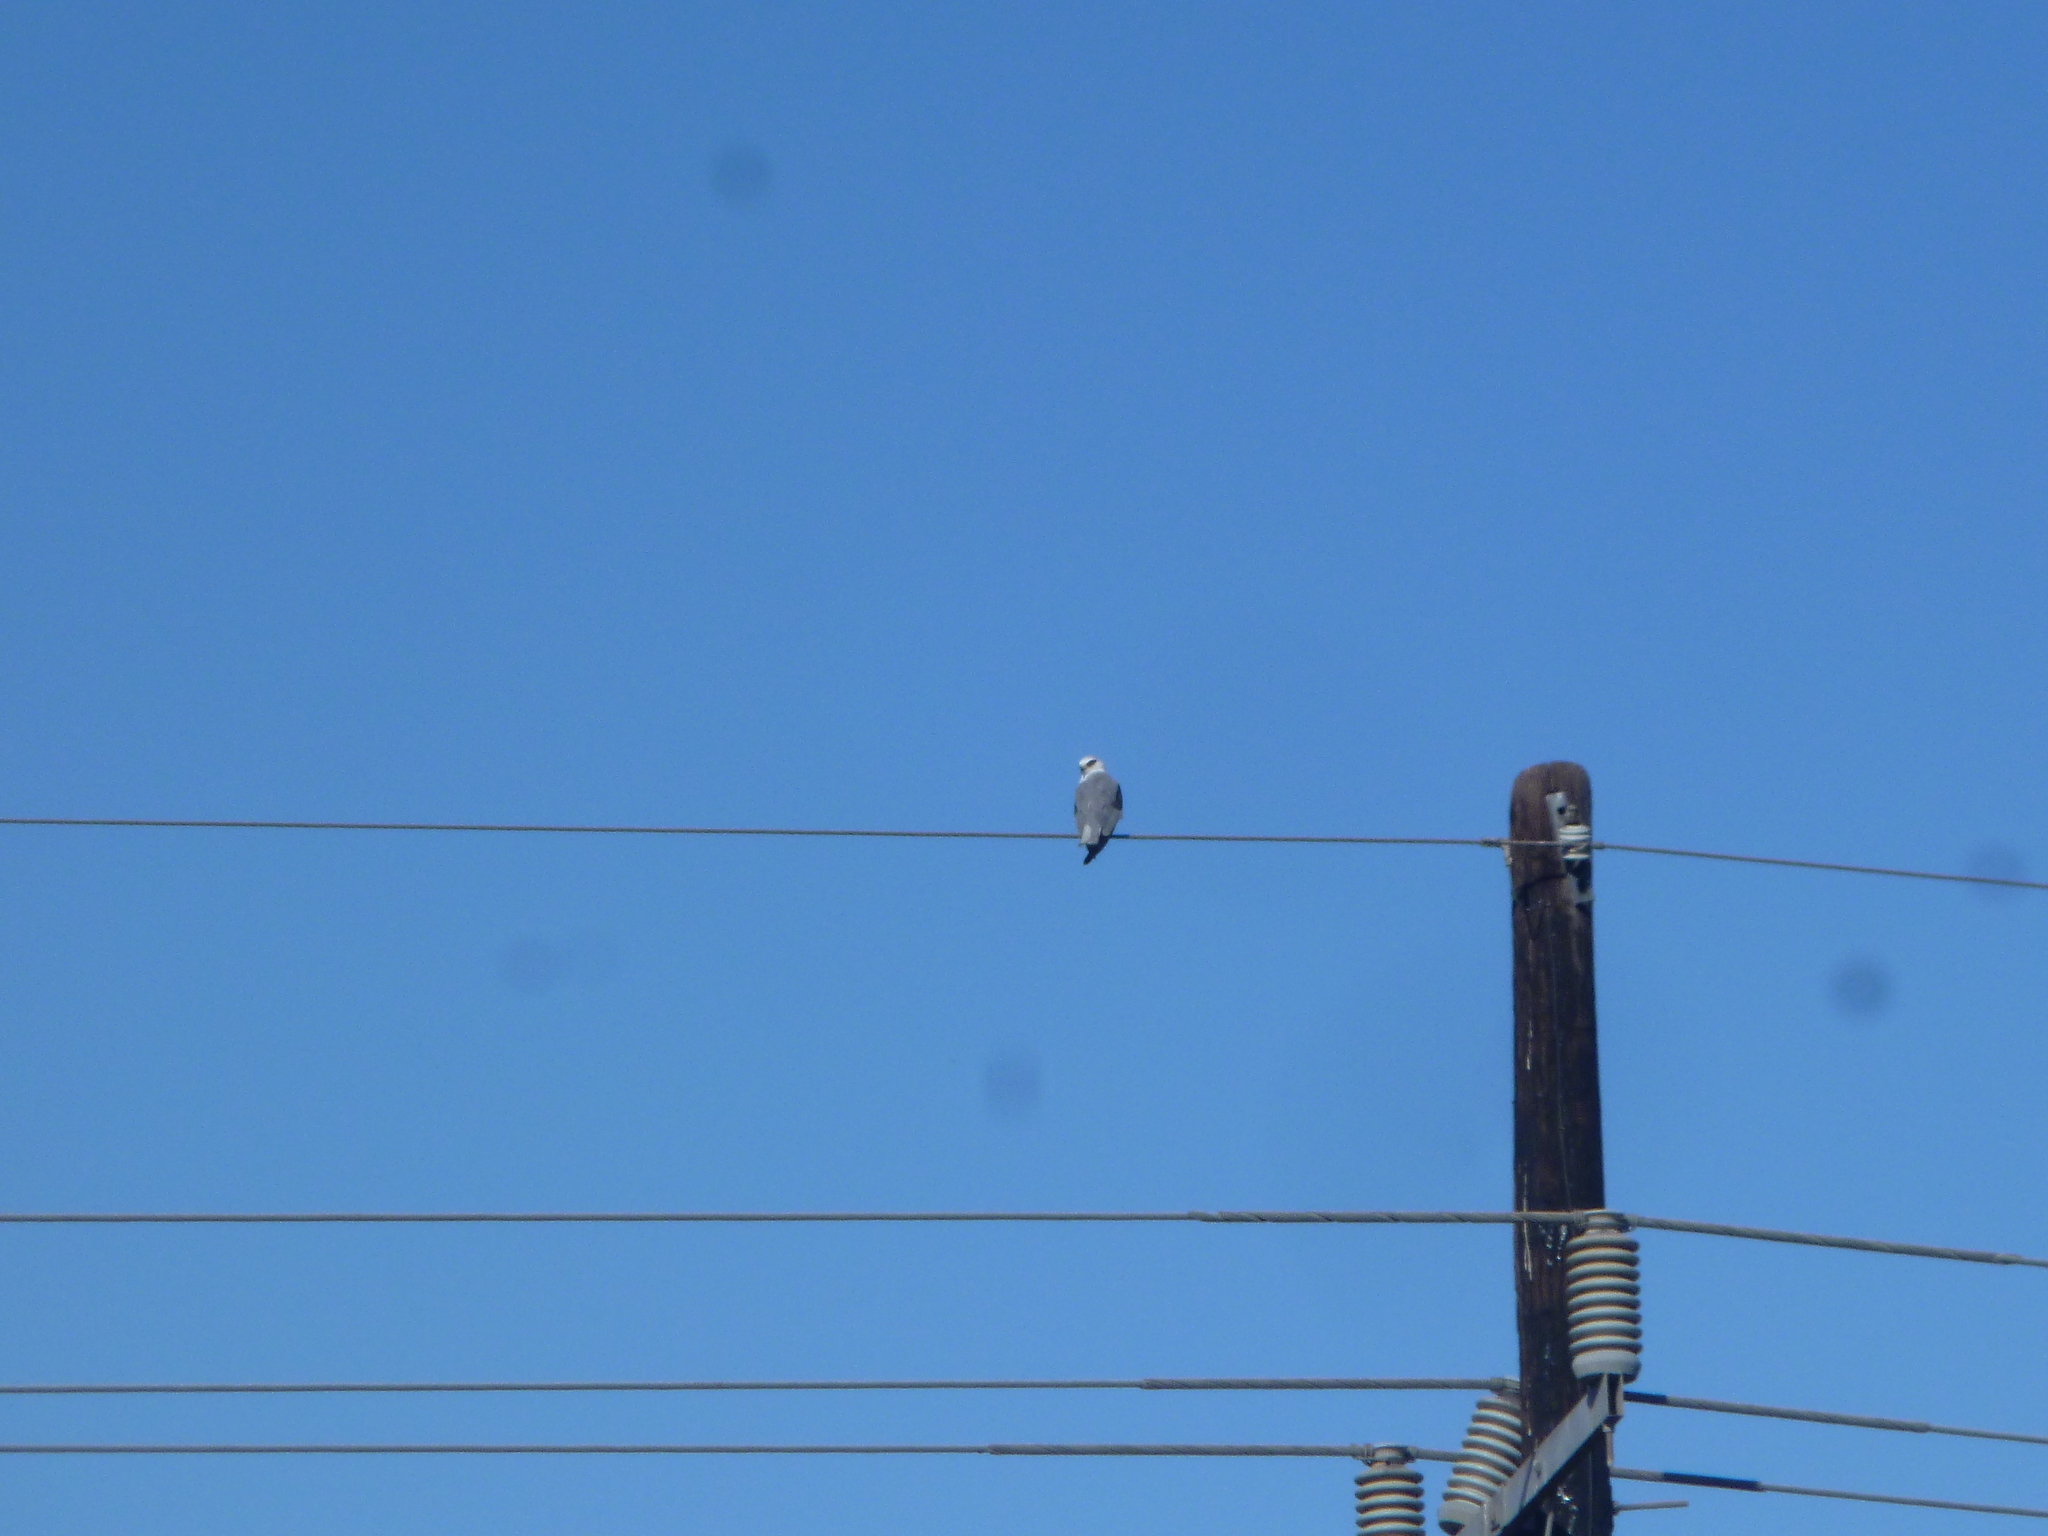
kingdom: Animalia
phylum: Chordata
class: Aves
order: Accipitriformes
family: Accipitridae
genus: Elanus
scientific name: Elanus leucurus
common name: White-tailed kite
